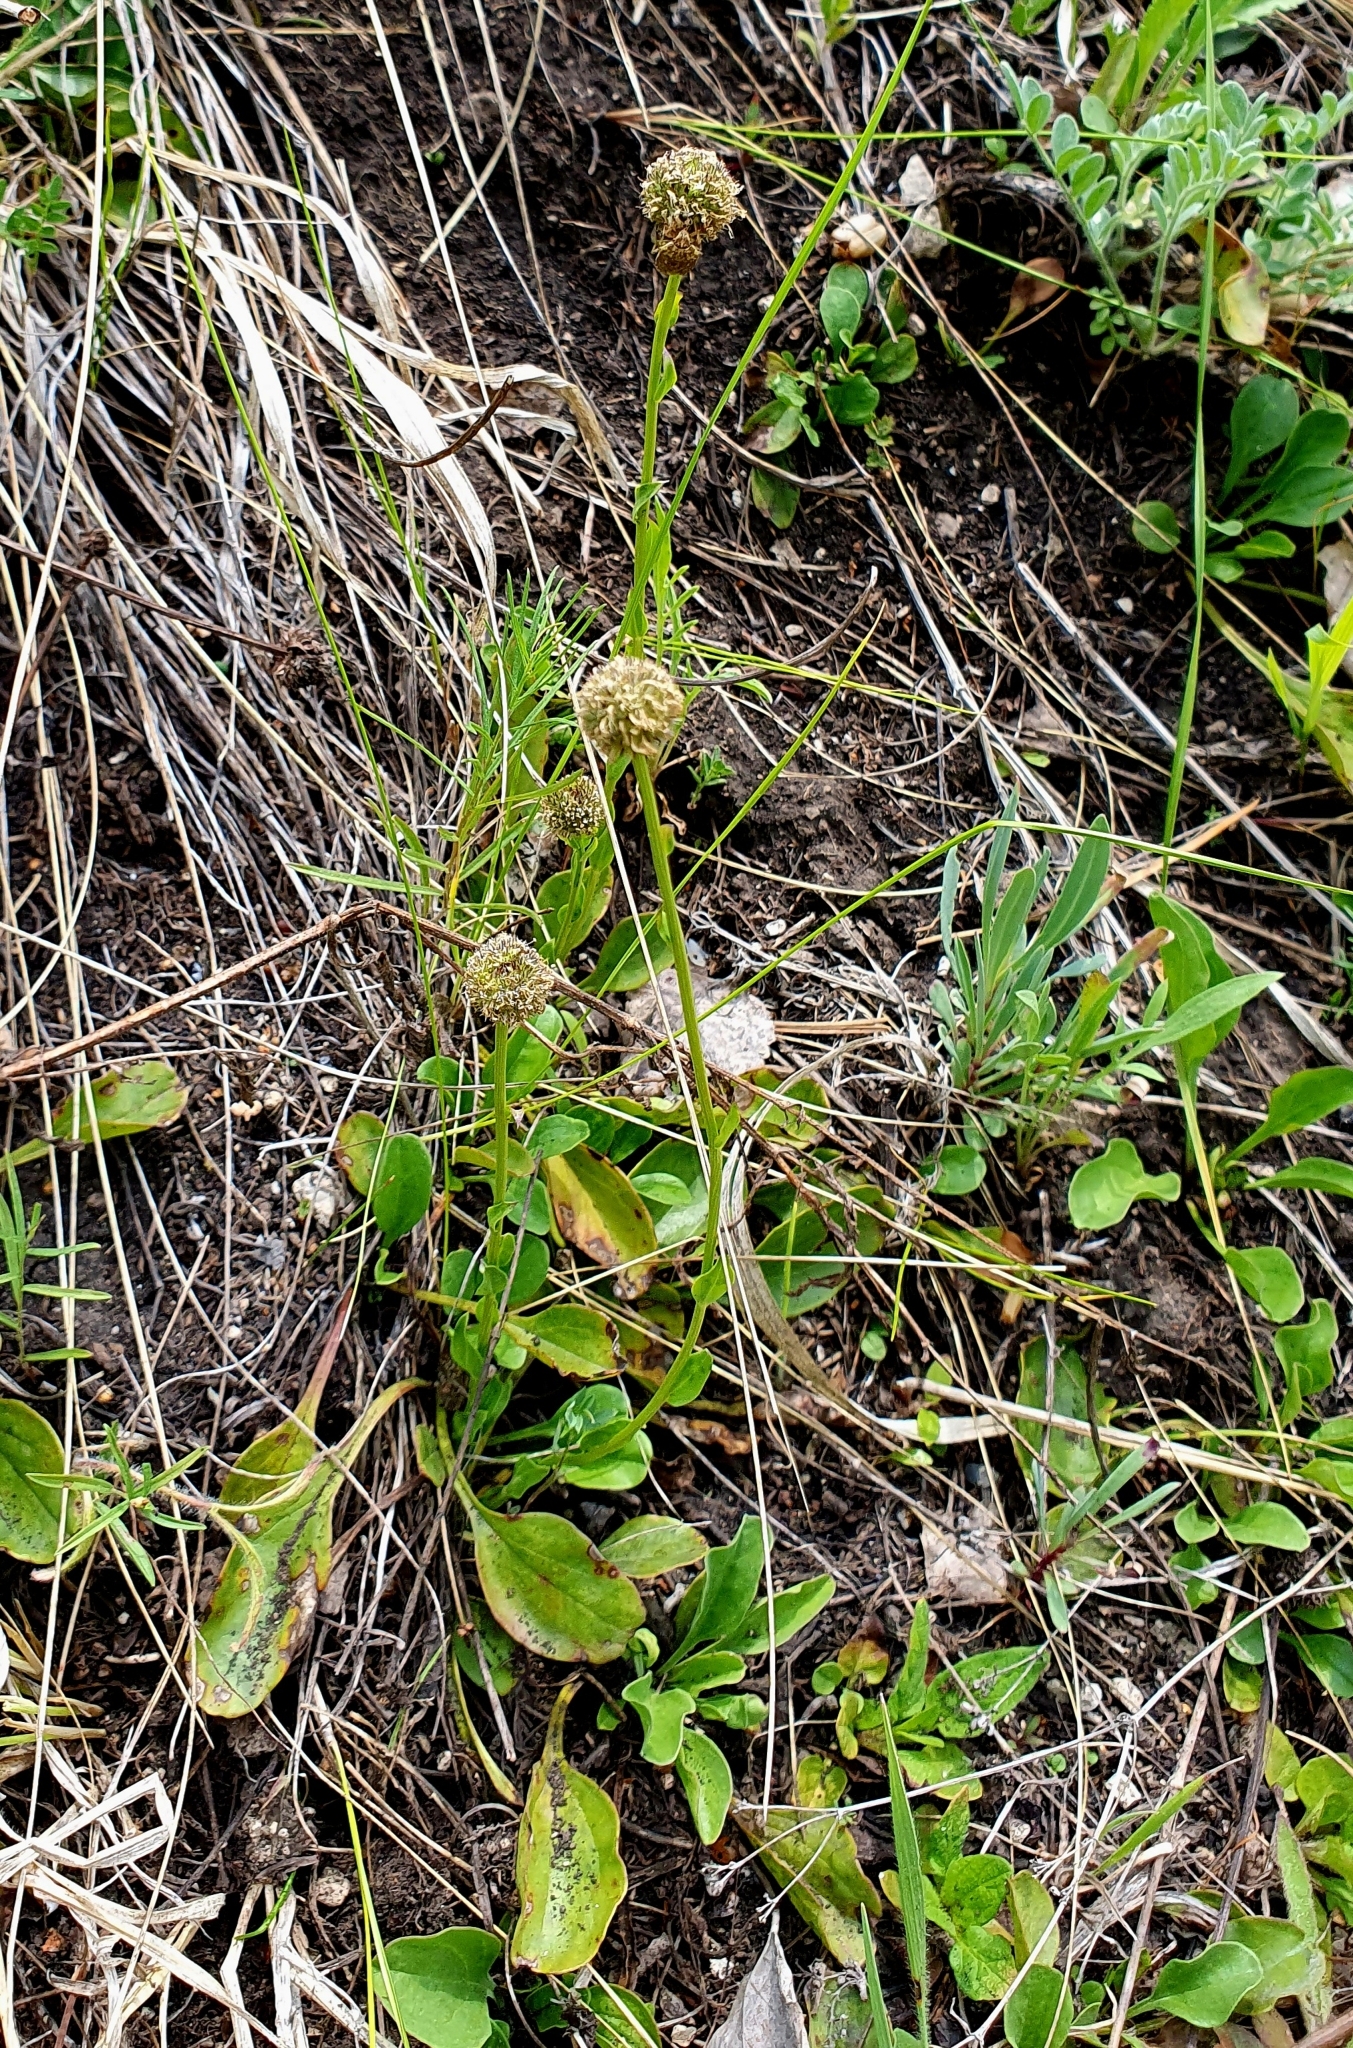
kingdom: Plantae
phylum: Tracheophyta
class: Magnoliopsida
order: Lamiales
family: Plantaginaceae
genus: Globularia
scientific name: Globularia bisnagarica
